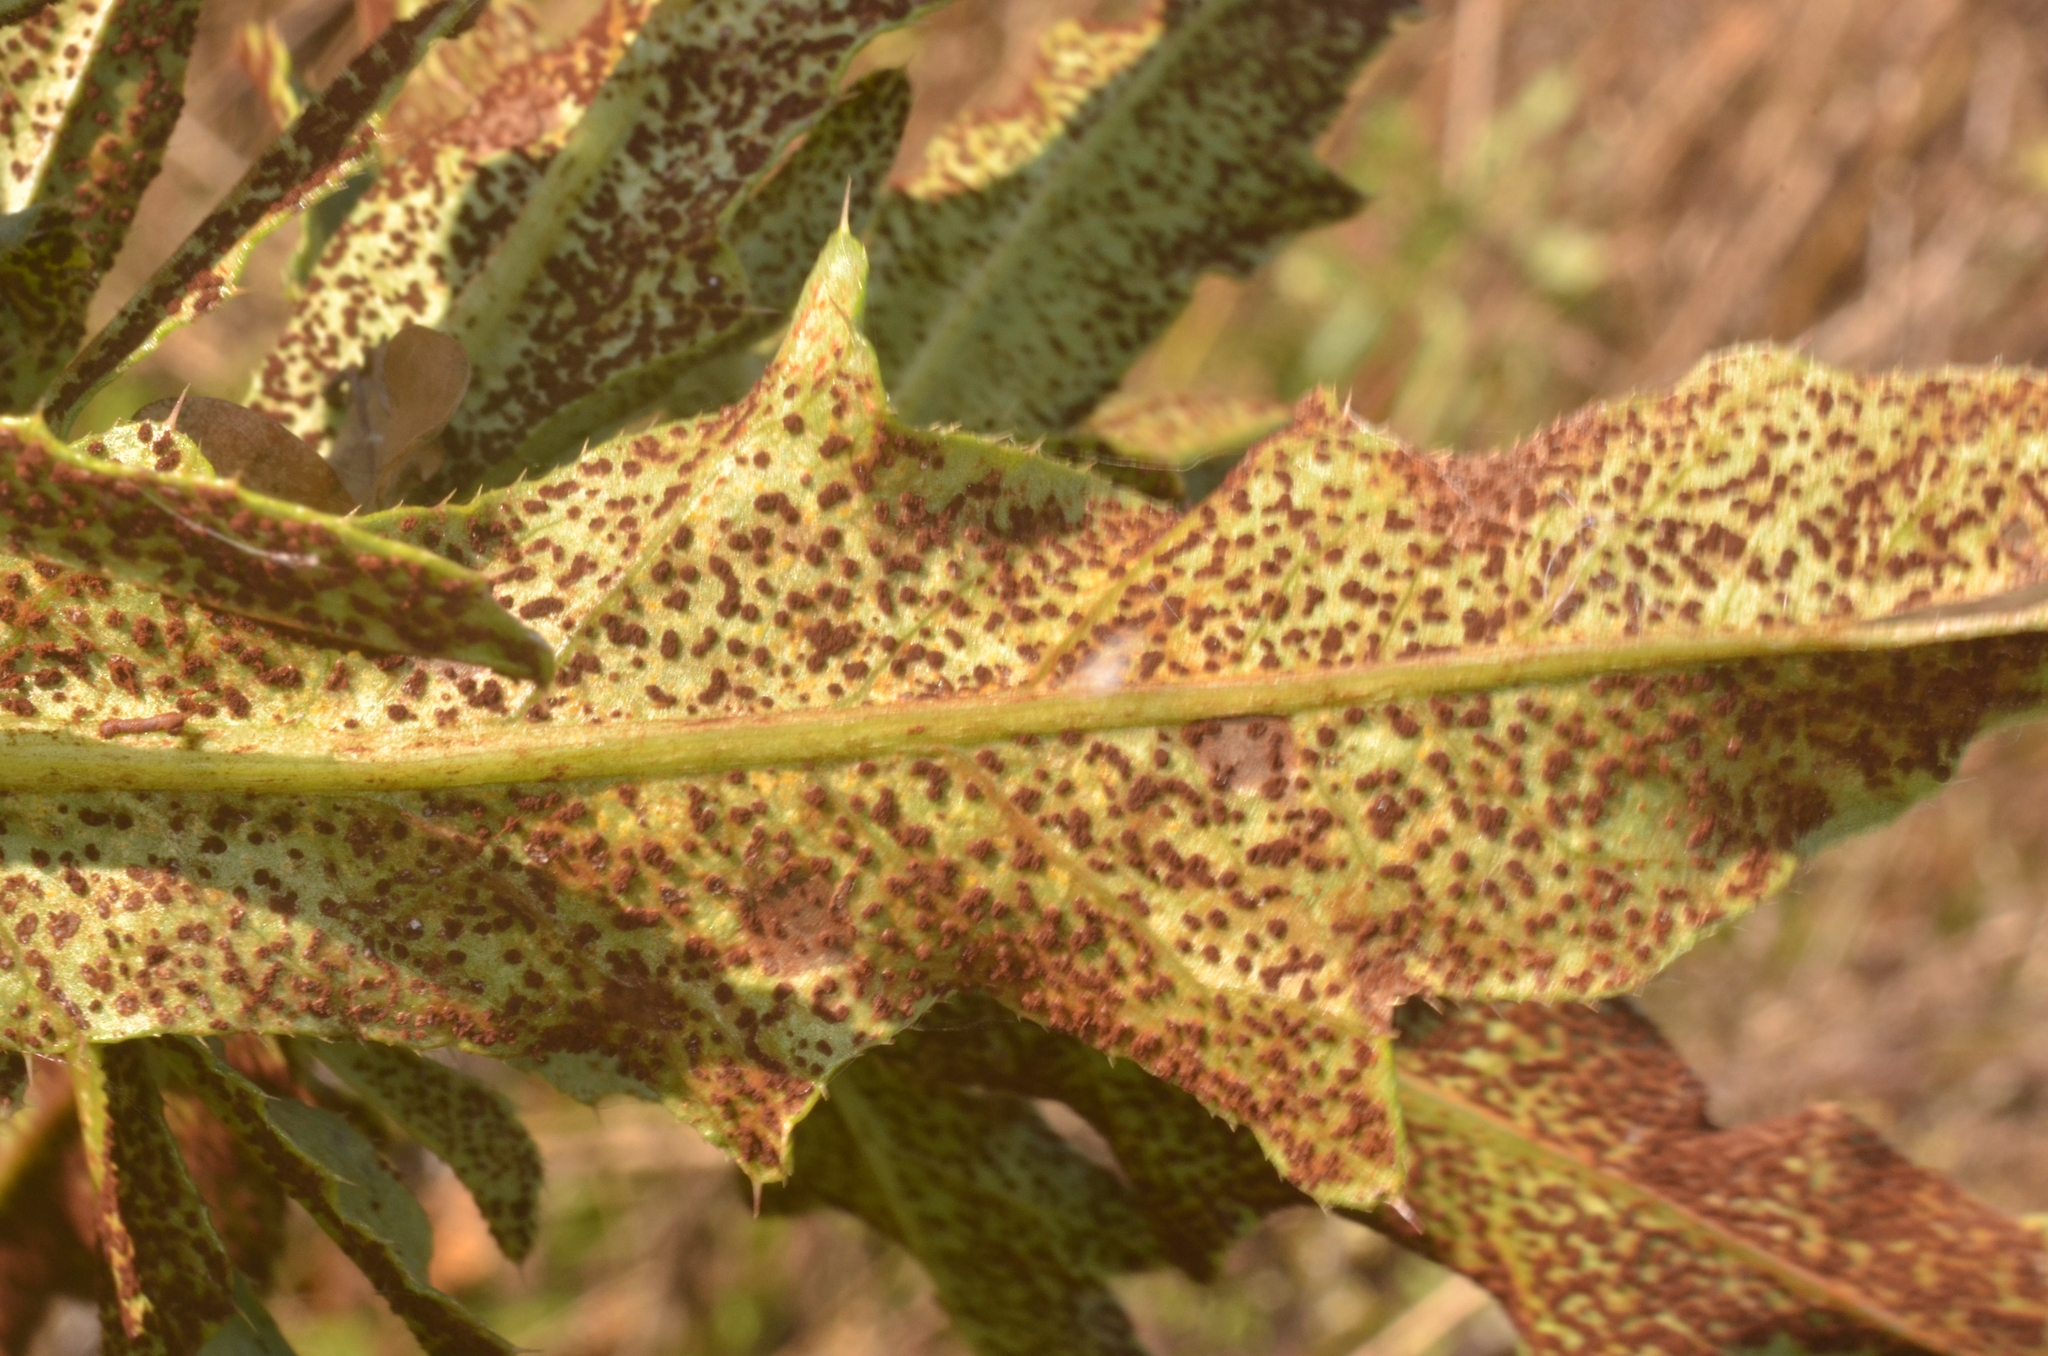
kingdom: Fungi
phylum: Basidiomycota
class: Pucciniomycetes
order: Pucciniales
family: Pucciniaceae
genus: Puccinia
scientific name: Puccinia suaveolens
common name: Thistle rust
